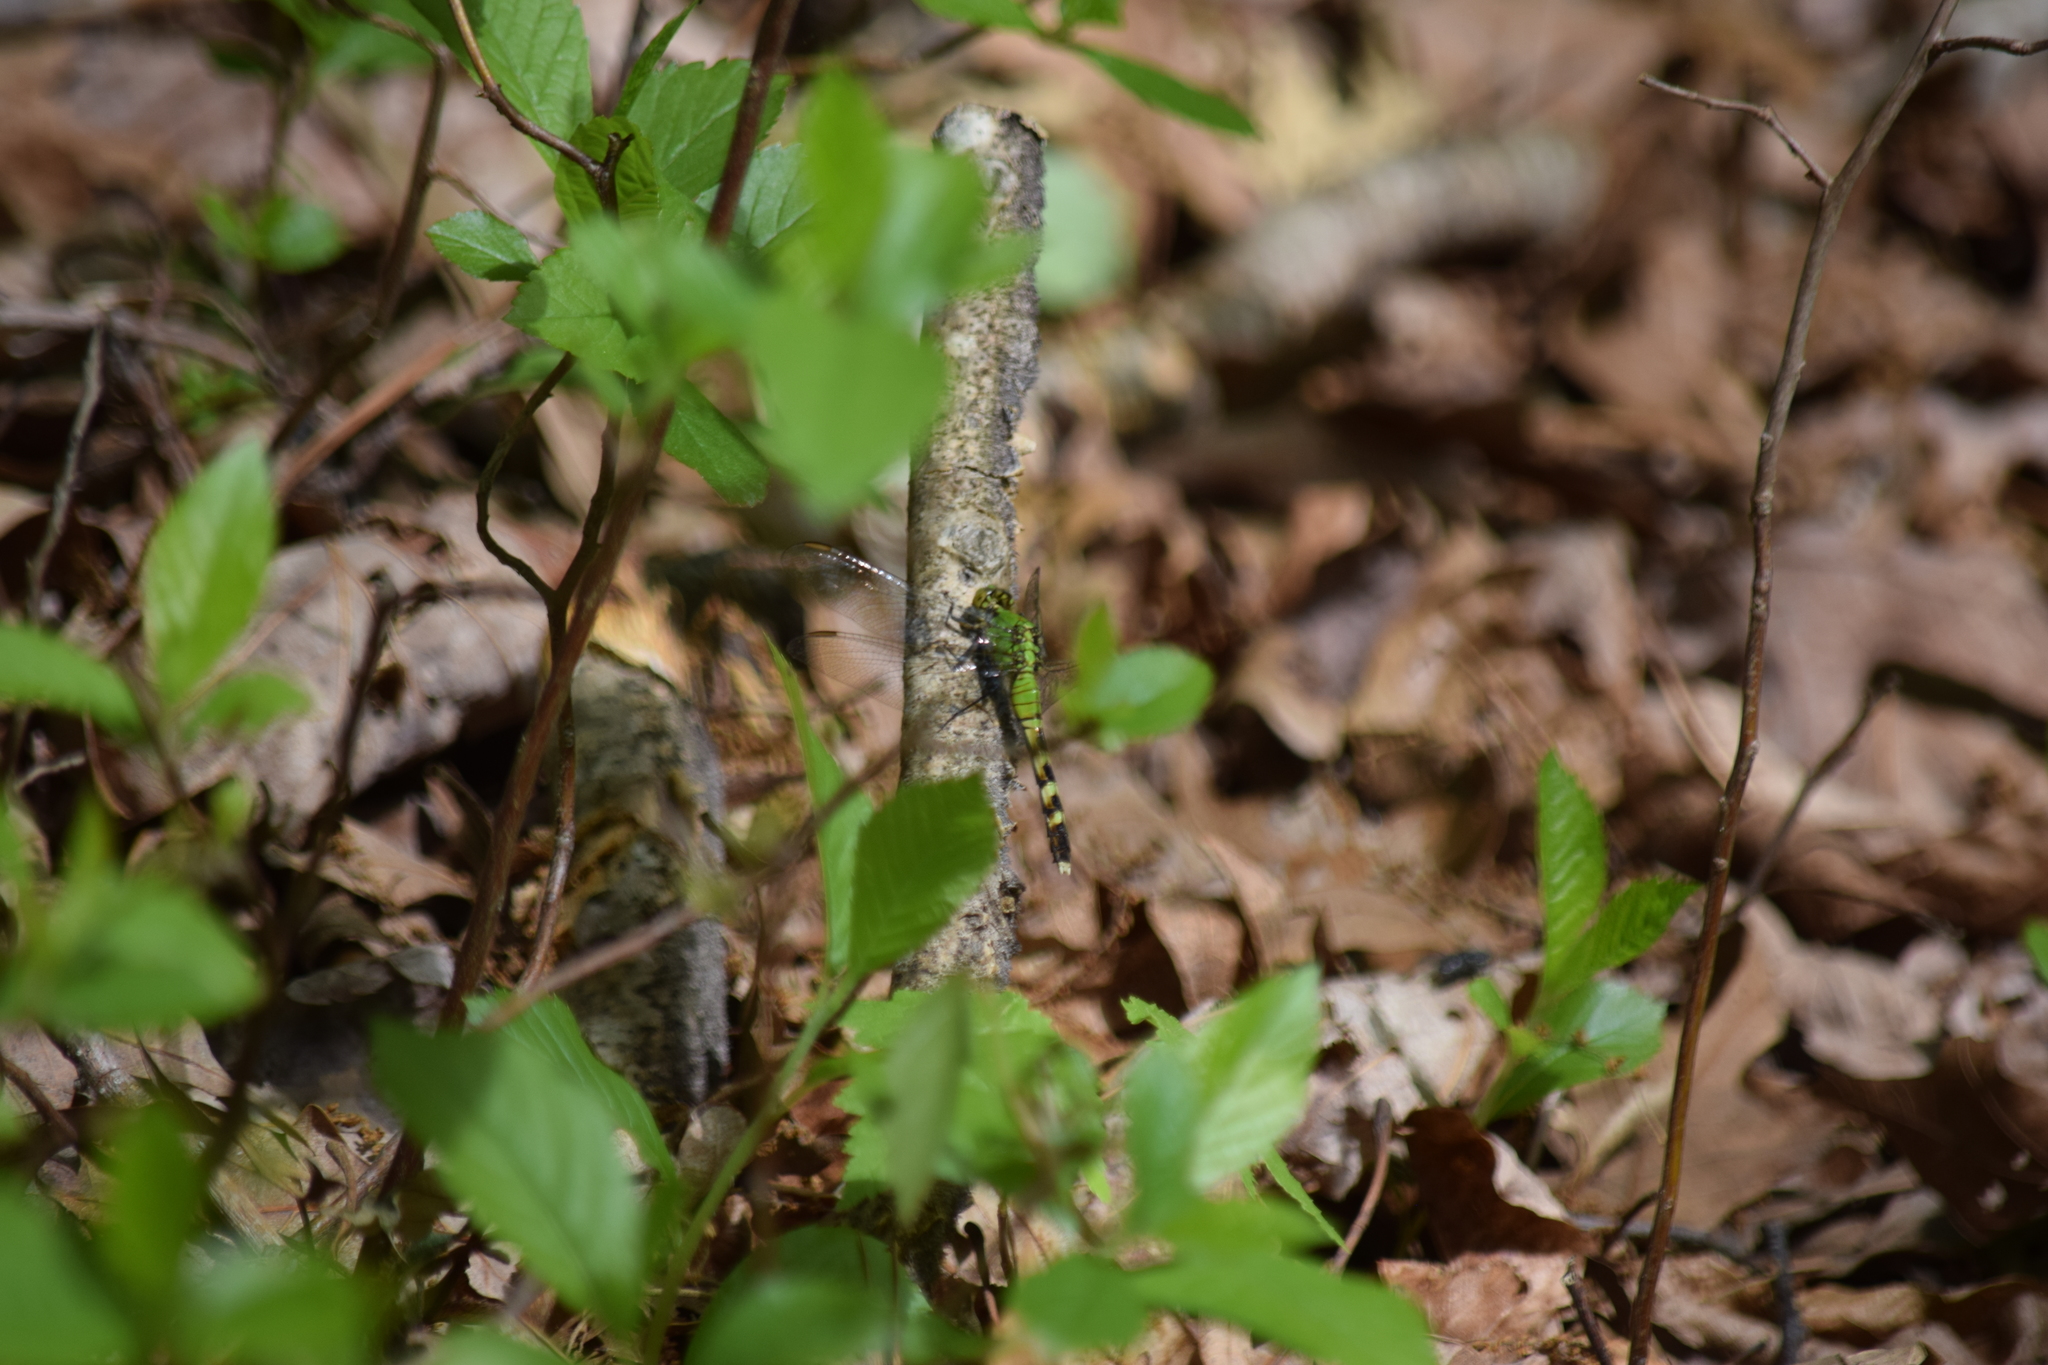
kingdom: Animalia
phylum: Arthropoda
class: Insecta
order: Odonata
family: Libellulidae
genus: Erythemis
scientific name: Erythemis simplicicollis
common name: Eastern pondhawk
